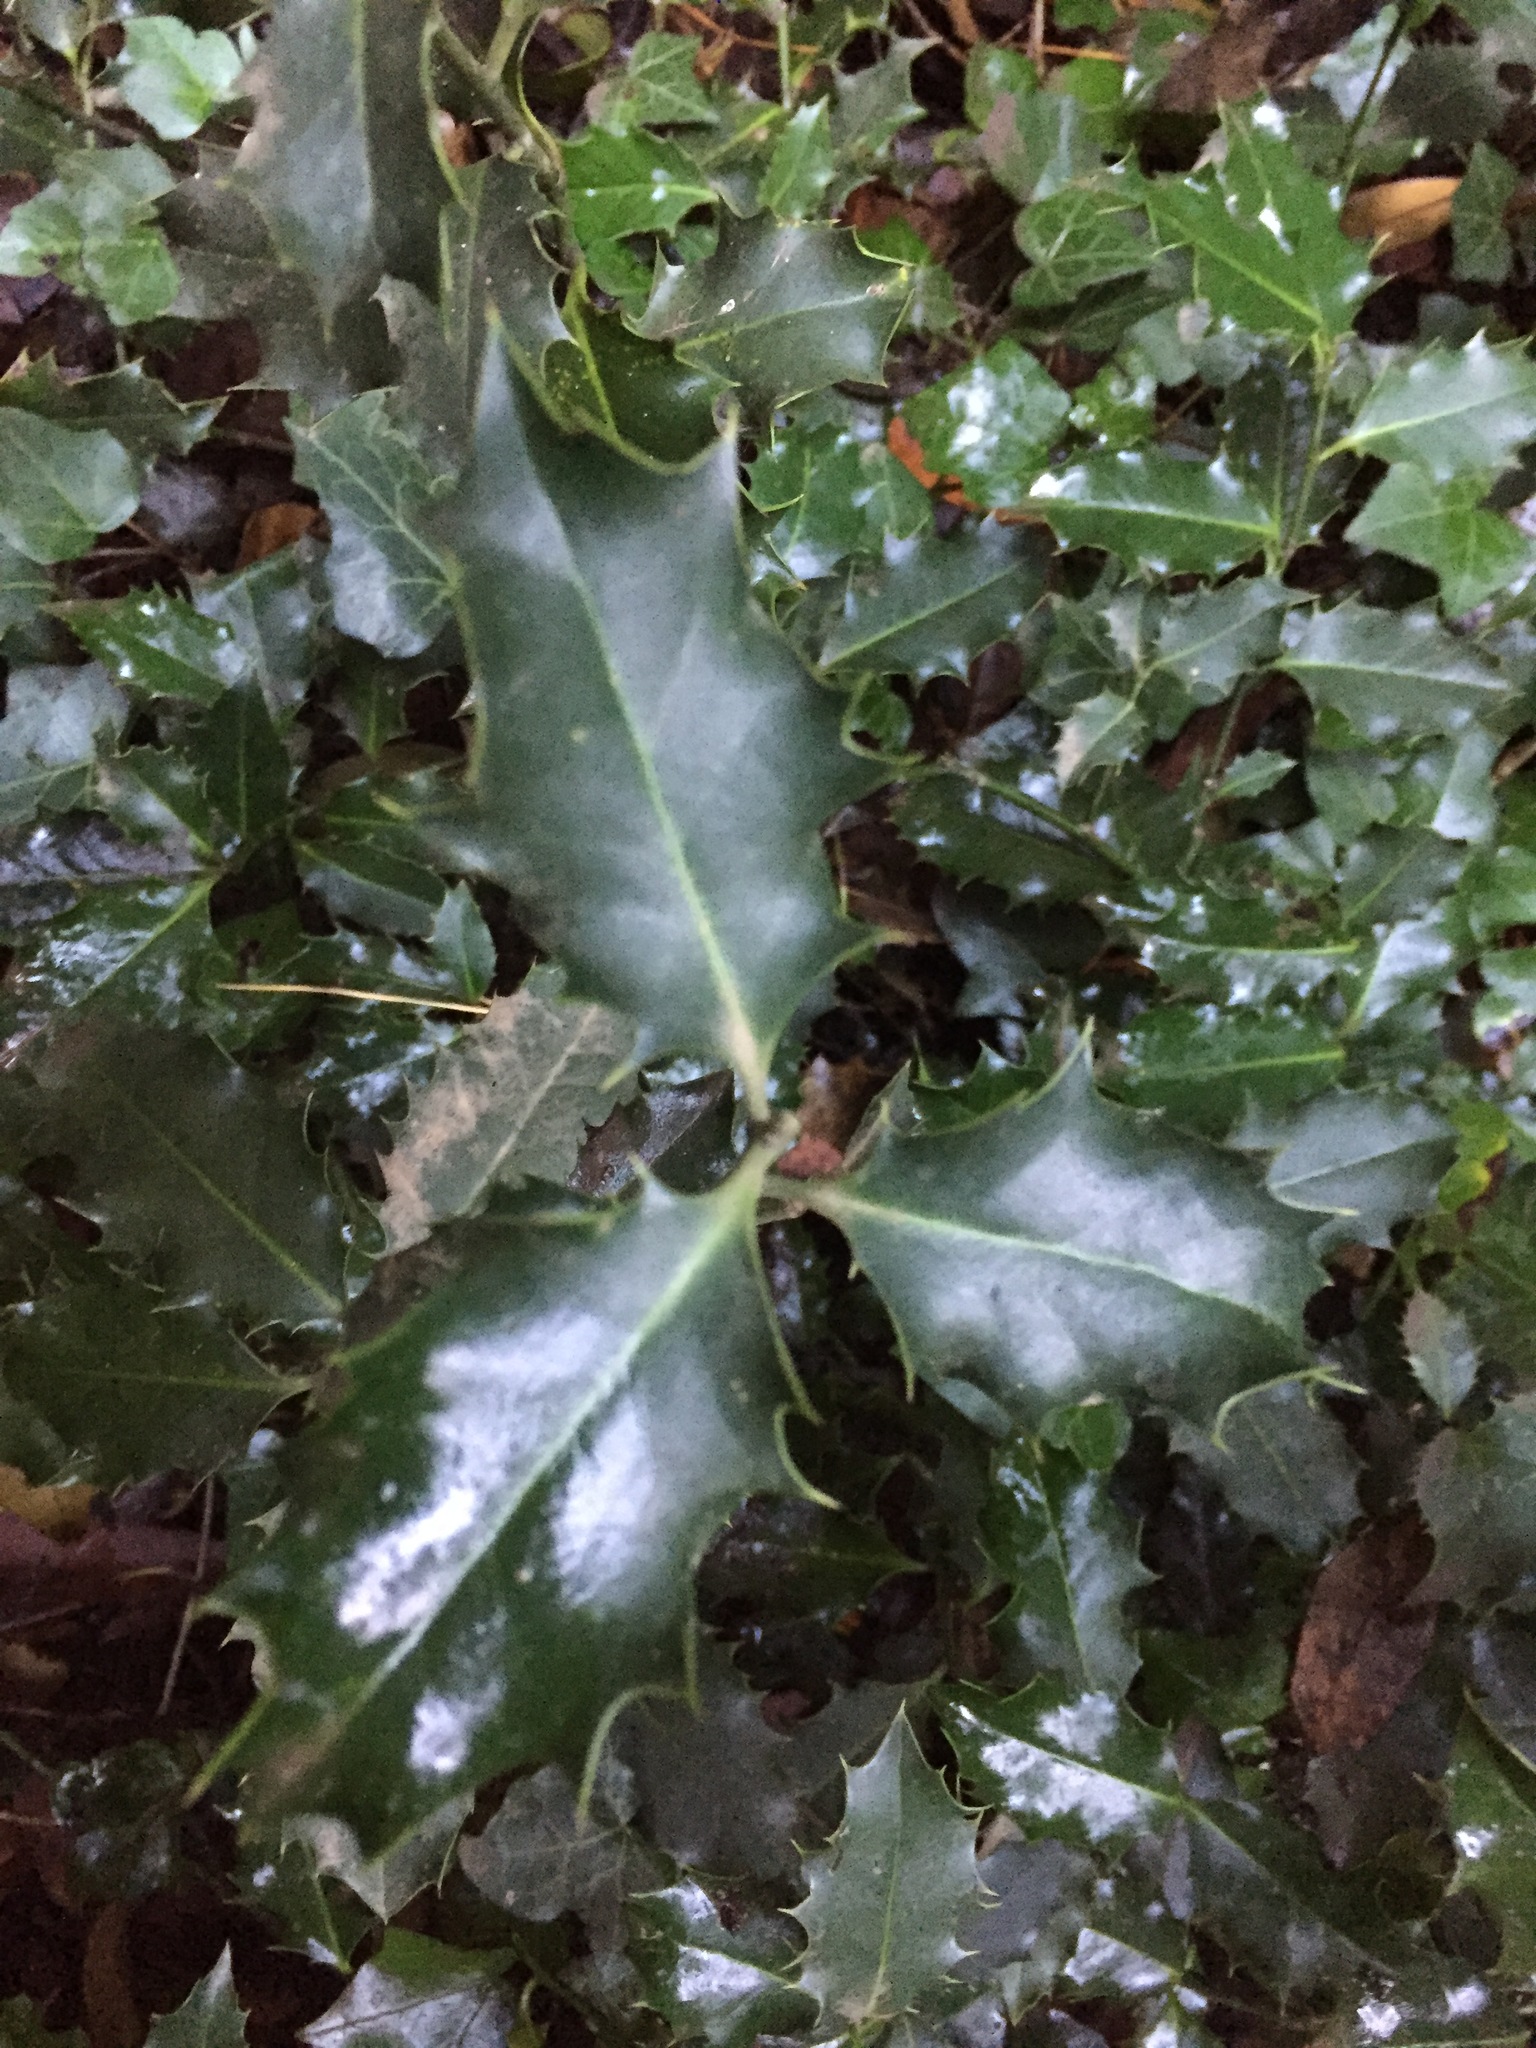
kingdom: Plantae
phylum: Tracheophyta
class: Magnoliopsida
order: Aquifoliales
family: Aquifoliaceae
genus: Ilex
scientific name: Ilex aquifolium
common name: English holly
